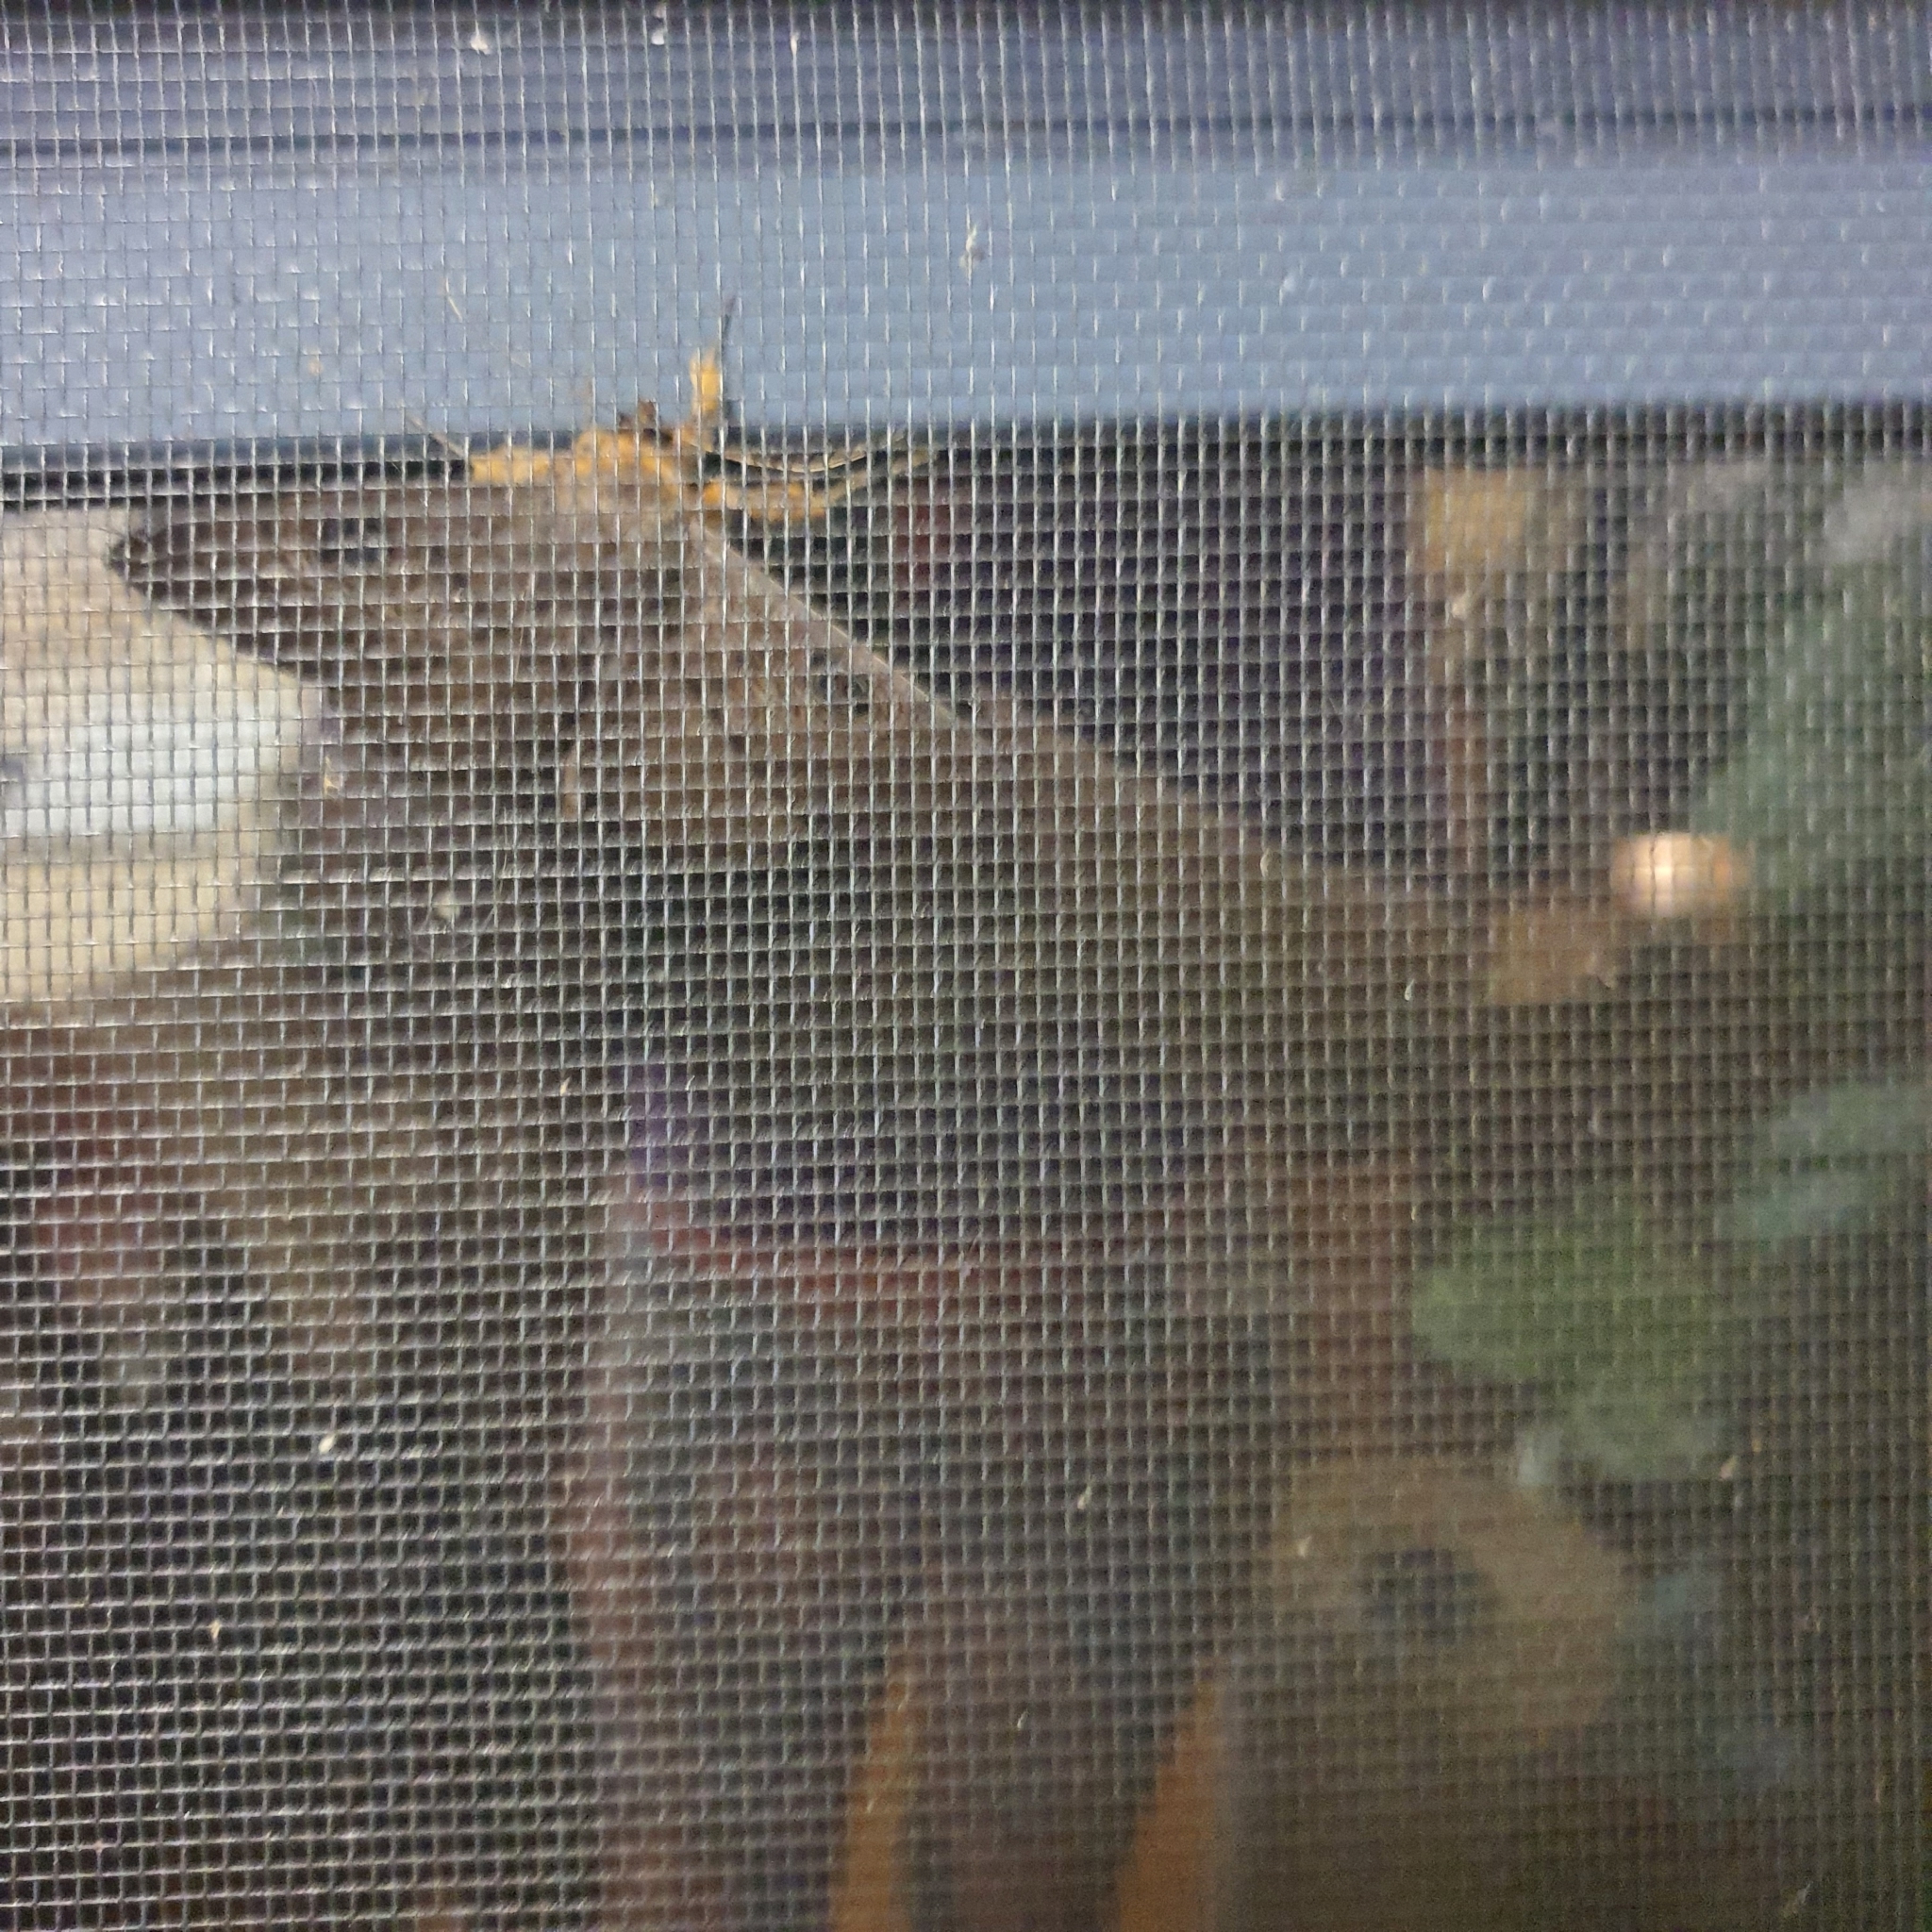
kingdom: Animalia
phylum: Arthropoda
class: Insecta
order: Lepidoptera
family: Erebidae
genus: Dasypodia
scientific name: Dasypodia selenophora
